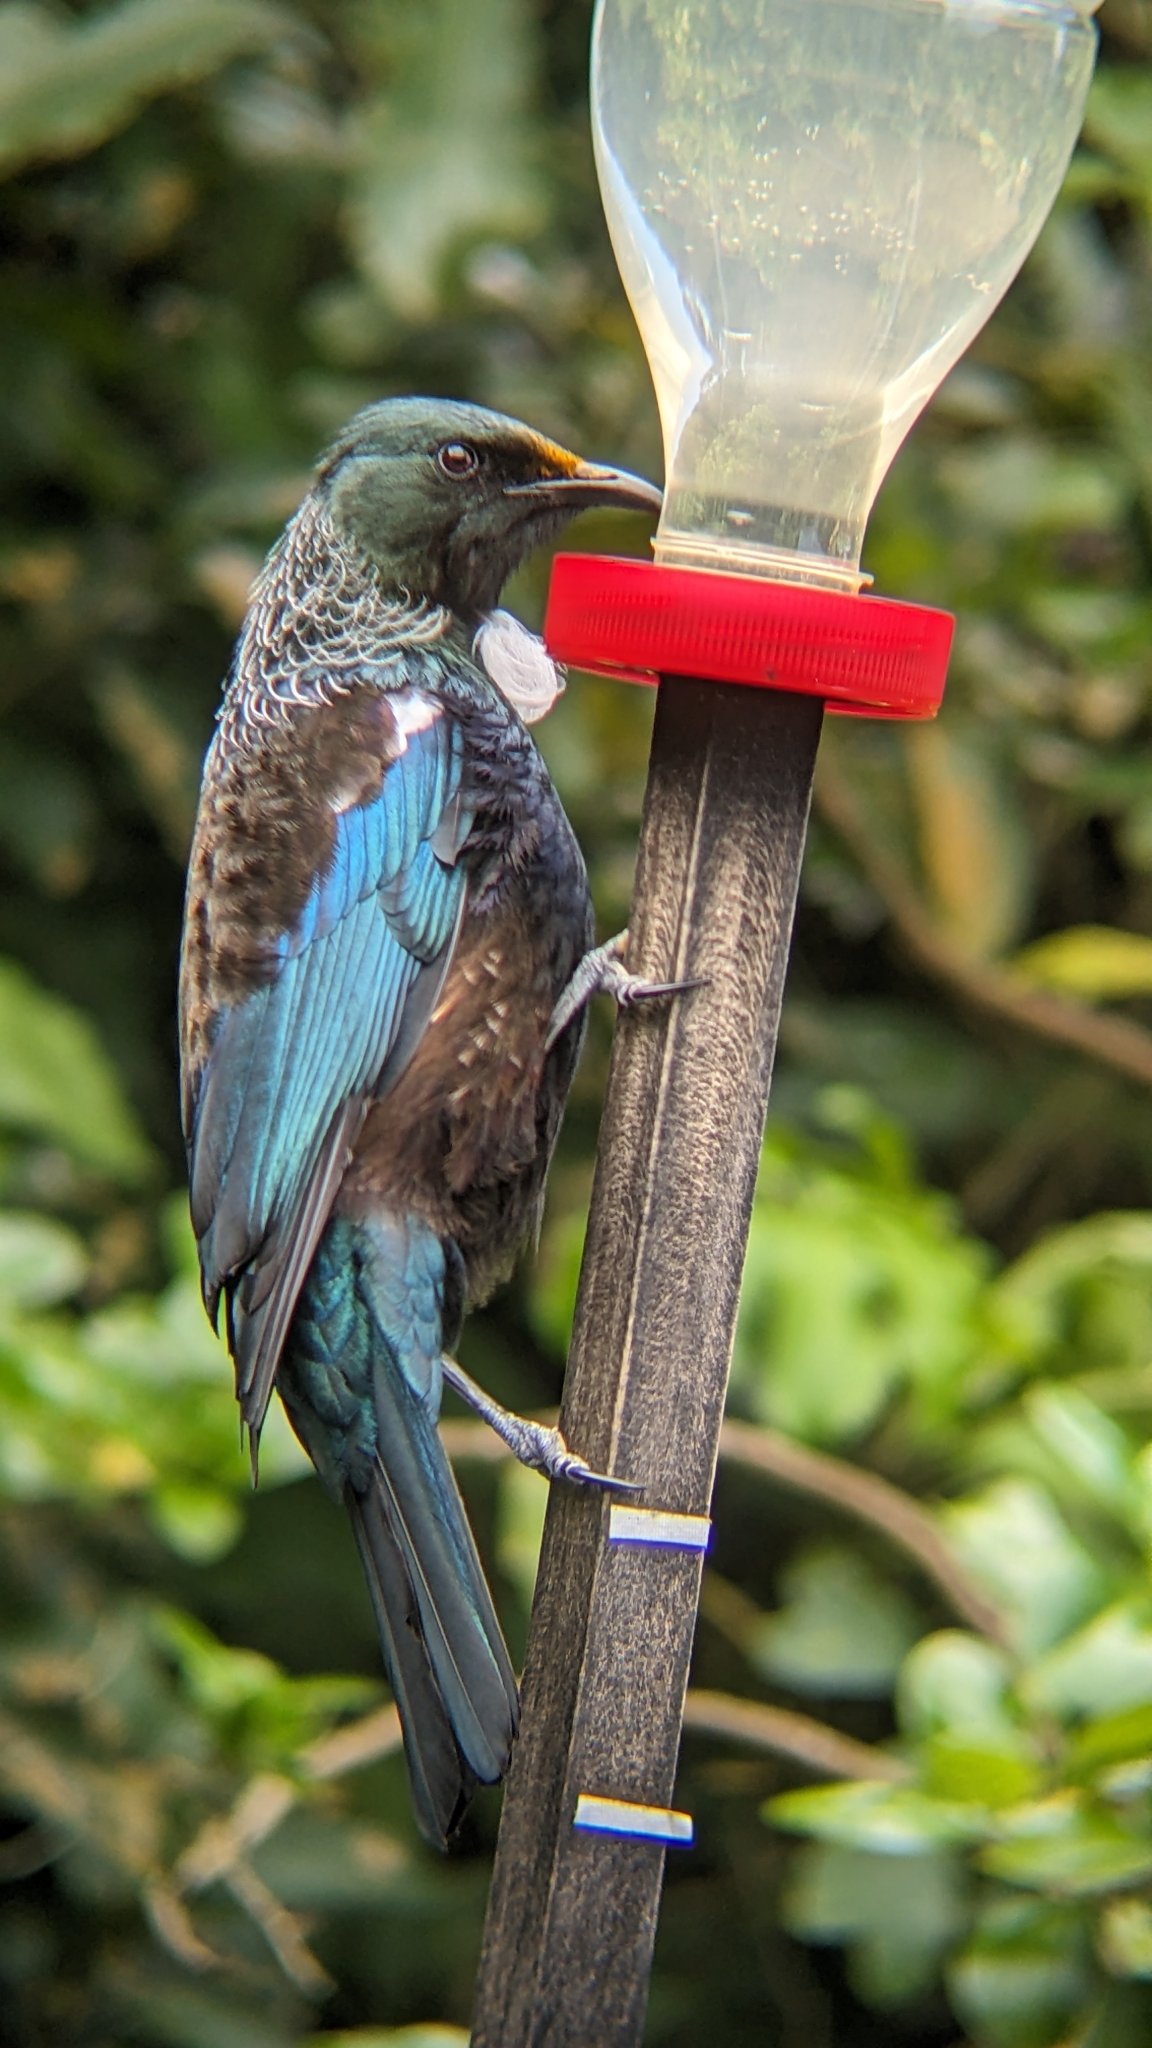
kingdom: Animalia
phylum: Chordata
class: Aves
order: Passeriformes
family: Meliphagidae
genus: Prosthemadera
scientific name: Prosthemadera novaeseelandiae
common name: Tui
